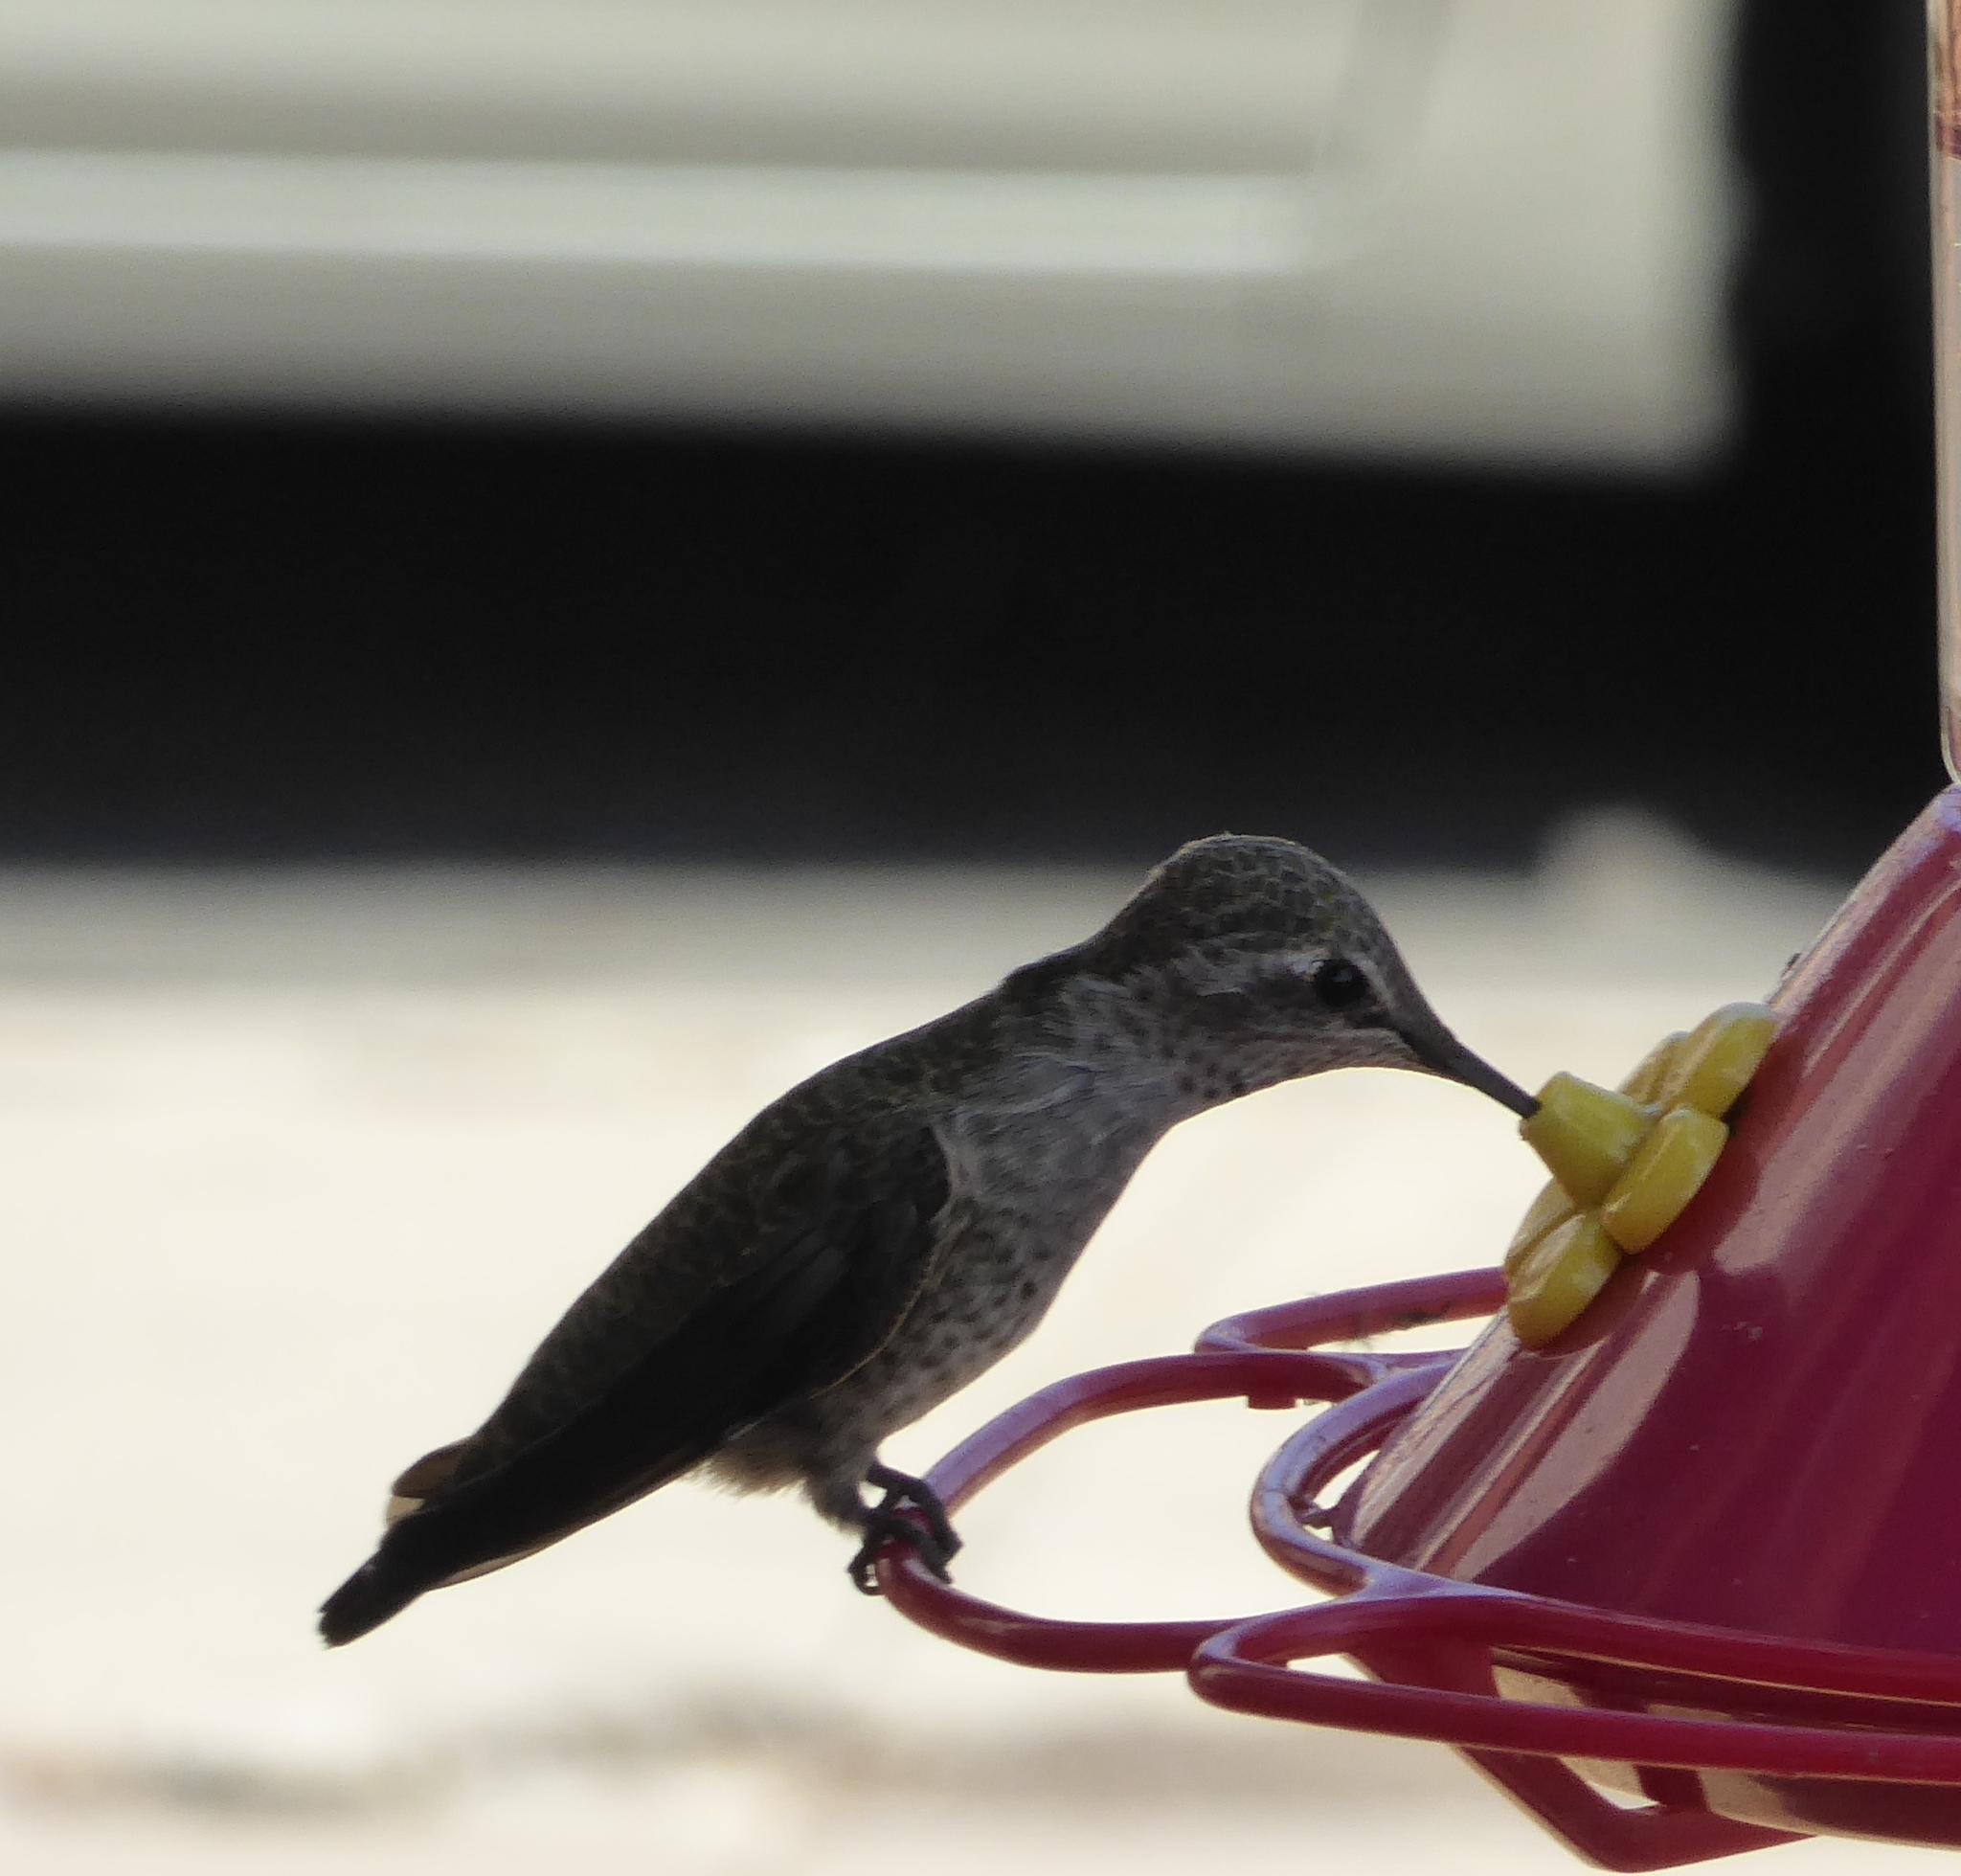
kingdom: Animalia
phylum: Chordata
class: Aves
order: Apodiformes
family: Trochilidae
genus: Calypte
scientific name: Calypte anna
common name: Anna's hummingbird
